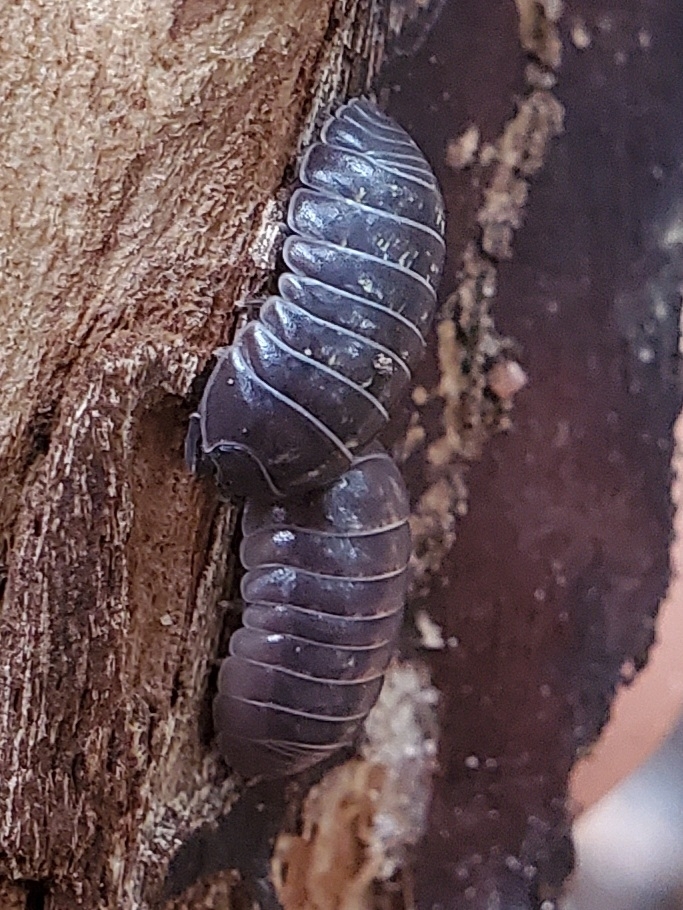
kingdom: Animalia
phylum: Arthropoda
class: Malacostraca
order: Isopoda
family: Armadillidiidae
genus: Armadillidium
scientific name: Armadillidium vulgare
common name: Common pill woodlouse
